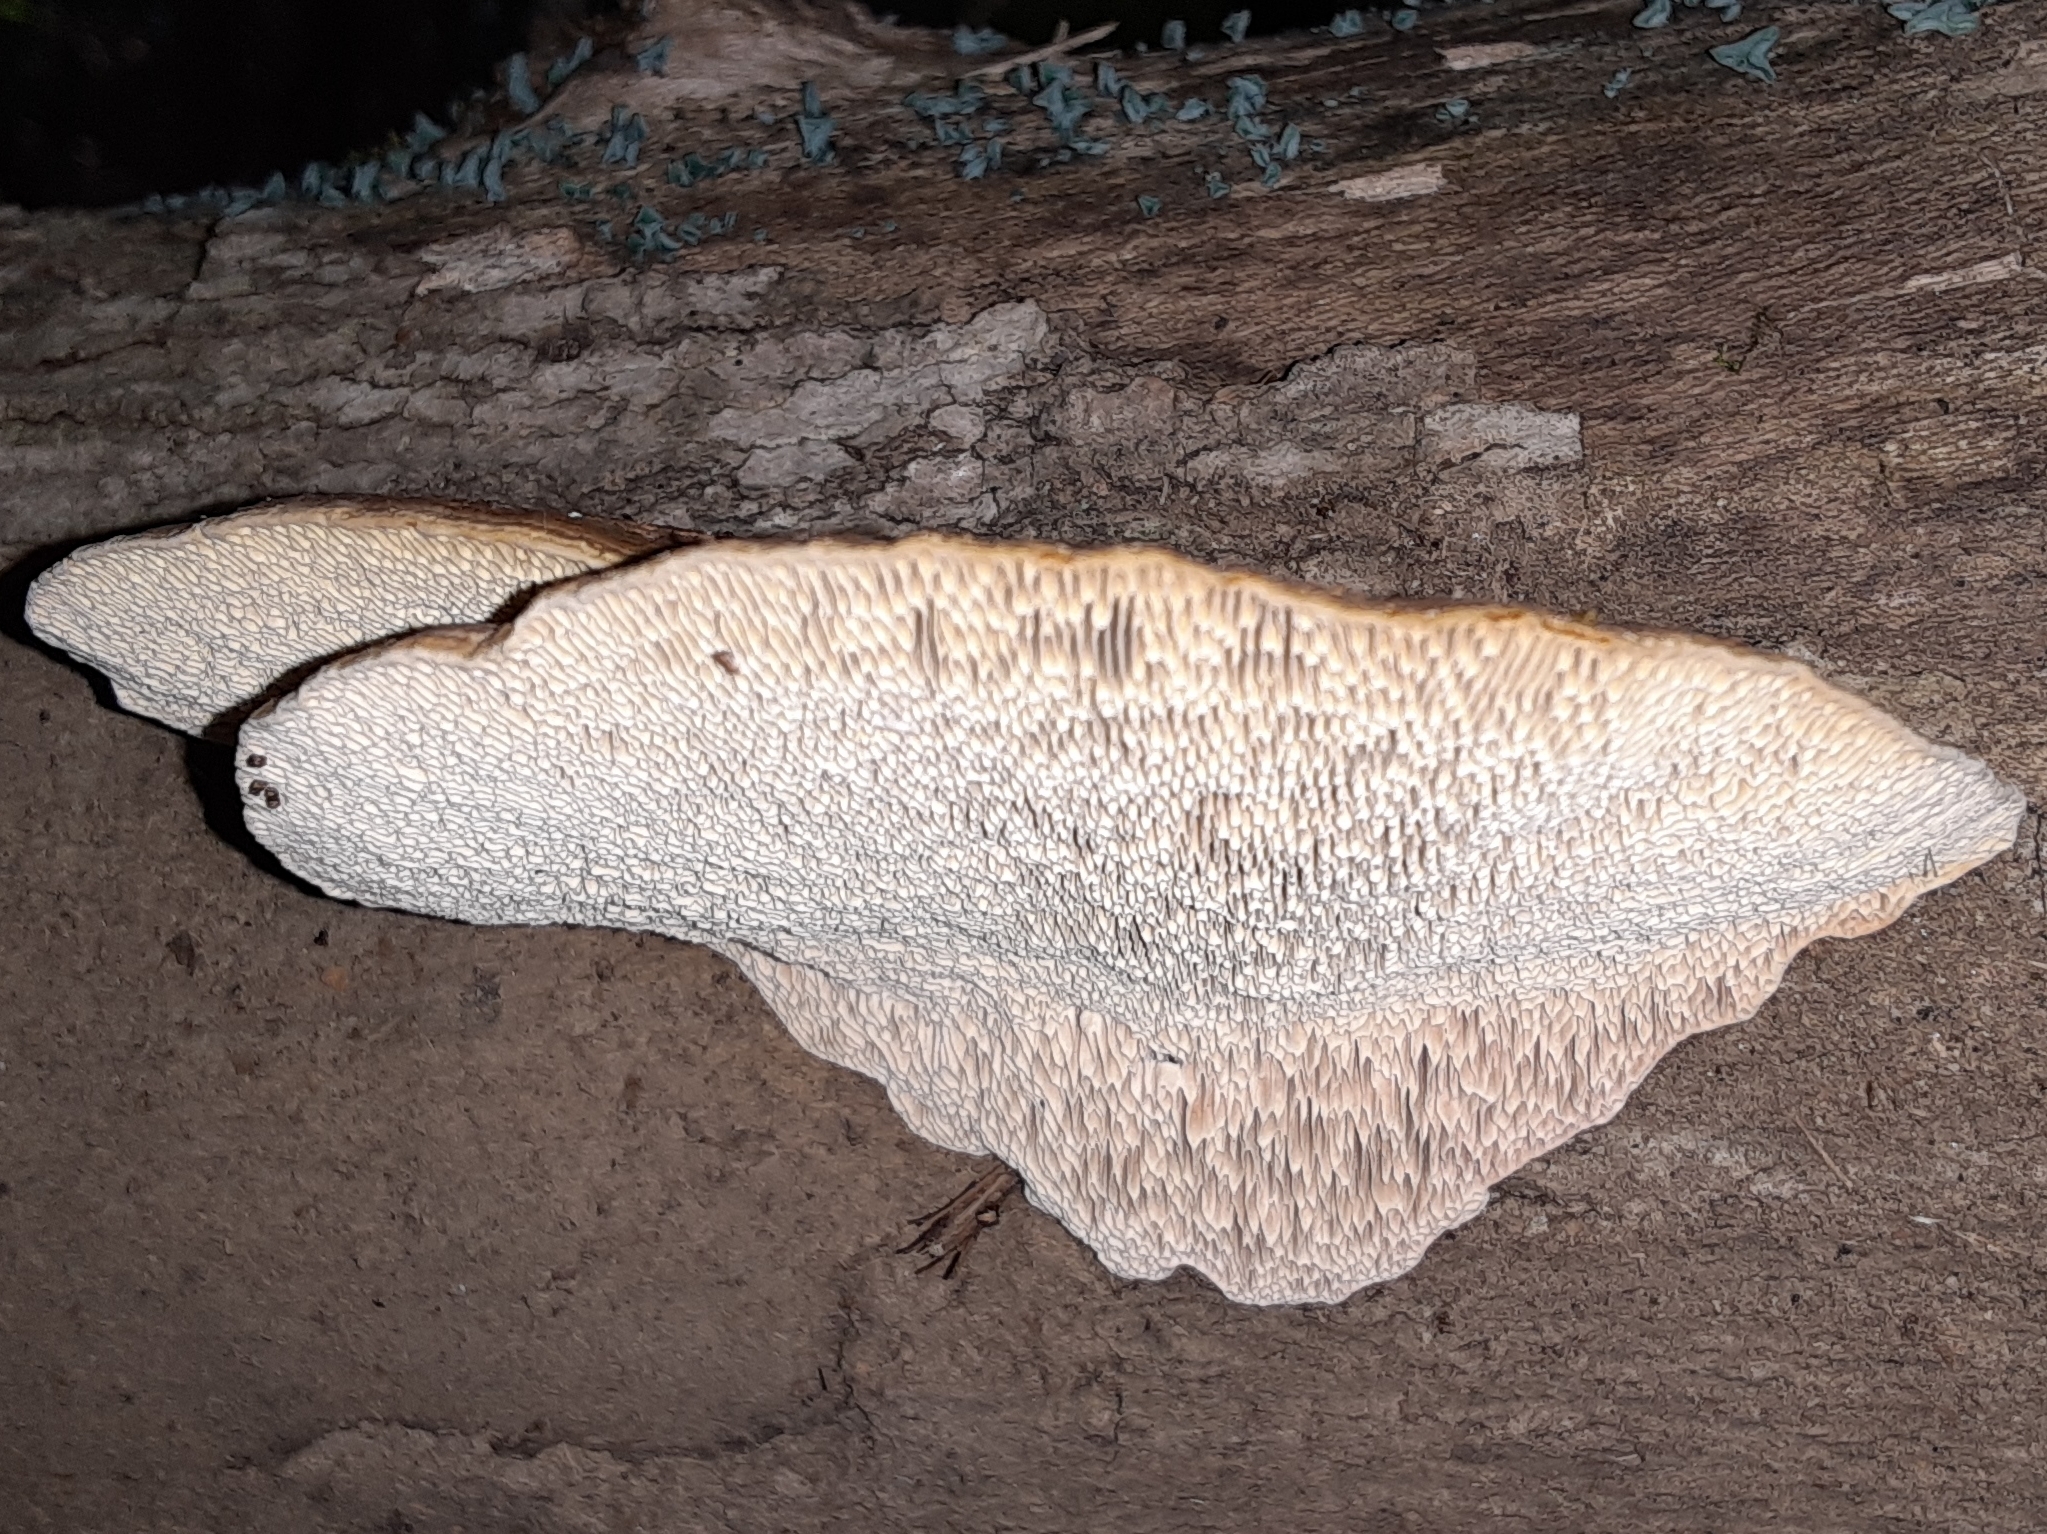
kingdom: Fungi
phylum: Basidiomycota
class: Agaricomycetes
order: Polyporales
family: Polyporaceae
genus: Daedaleopsis
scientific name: Daedaleopsis confragosa
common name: Blushing bracket
